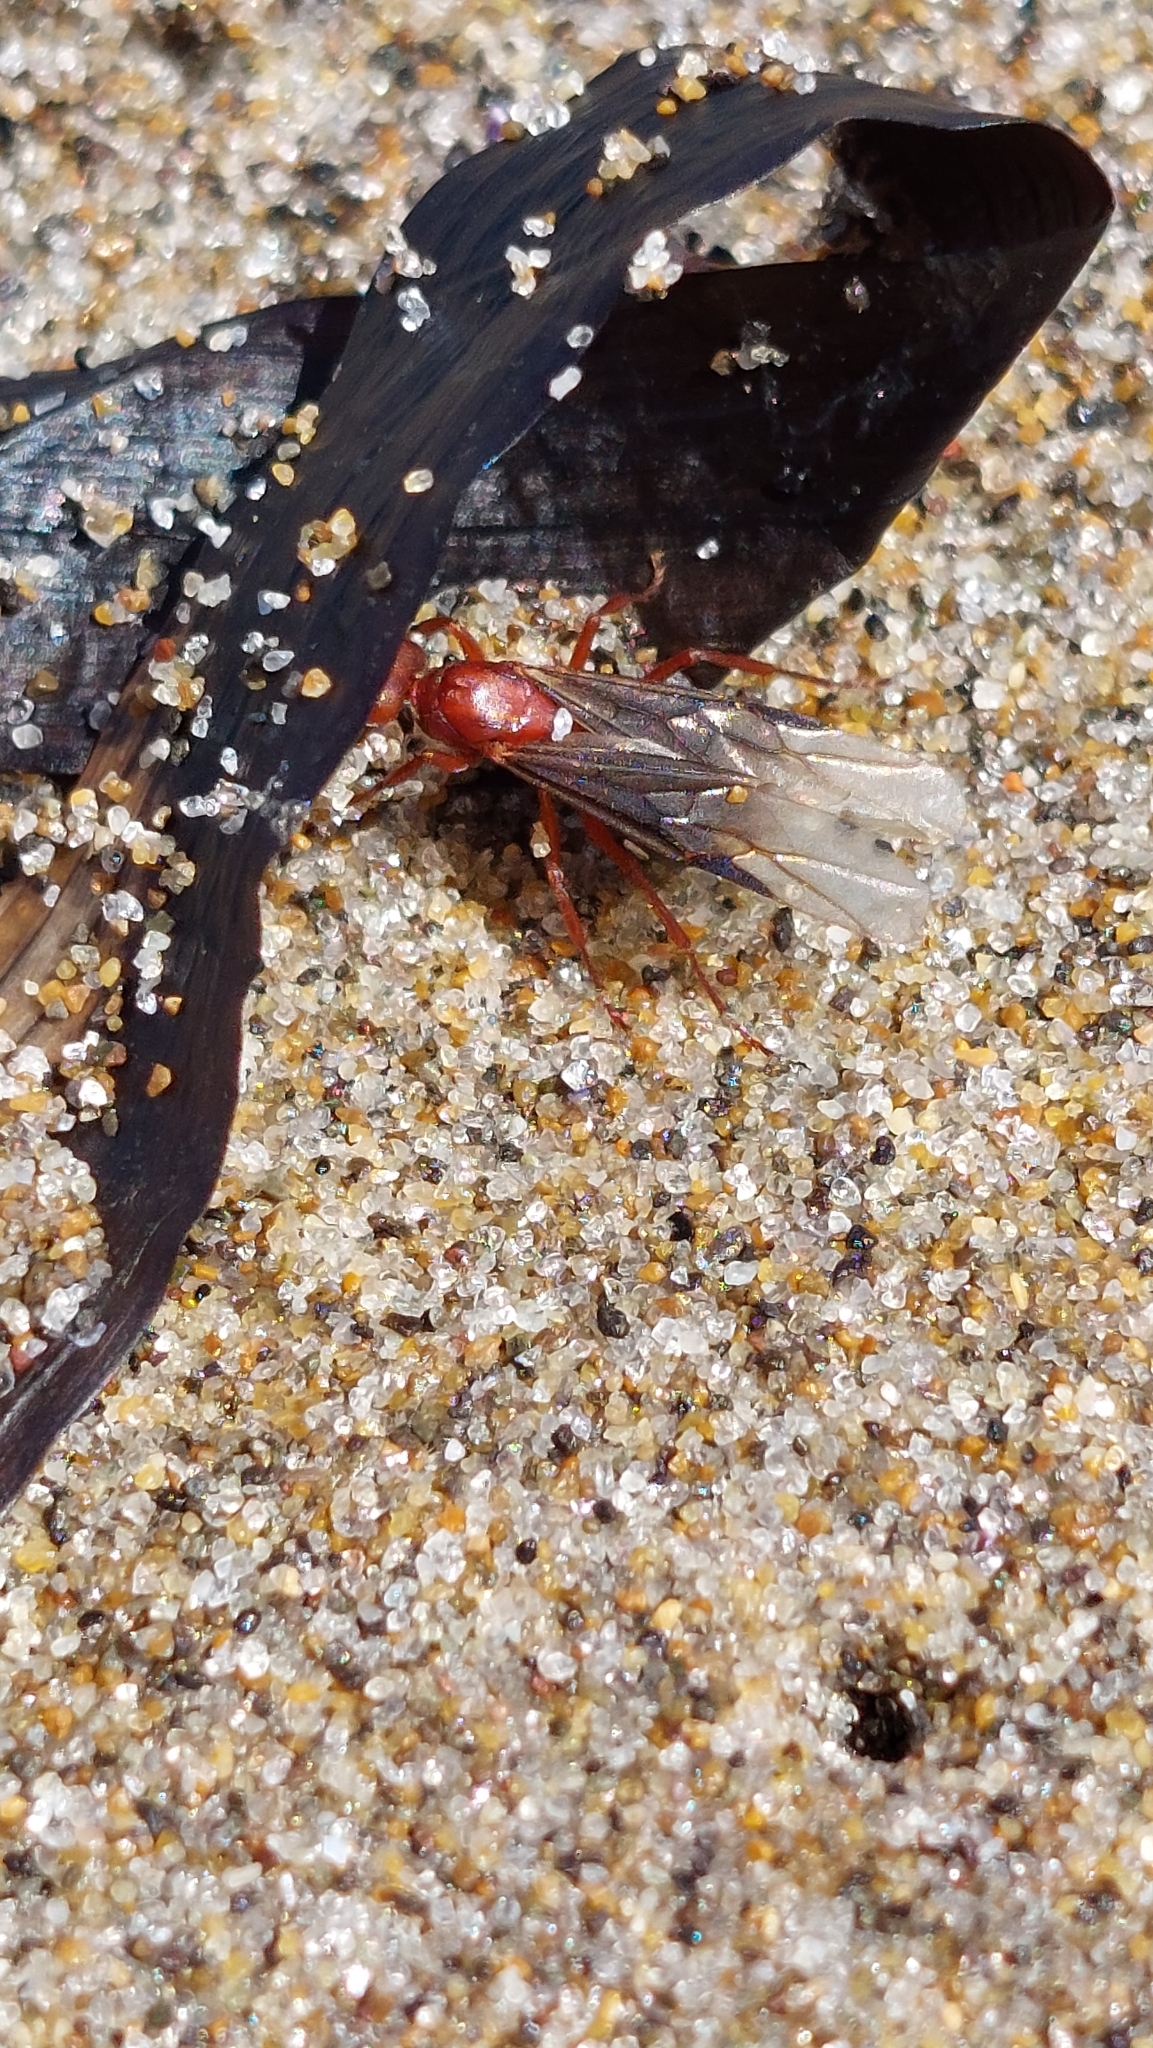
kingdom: Animalia
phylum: Arthropoda
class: Insecta
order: Hymenoptera
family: Formicidae
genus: Formica
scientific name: Formica curiosa
